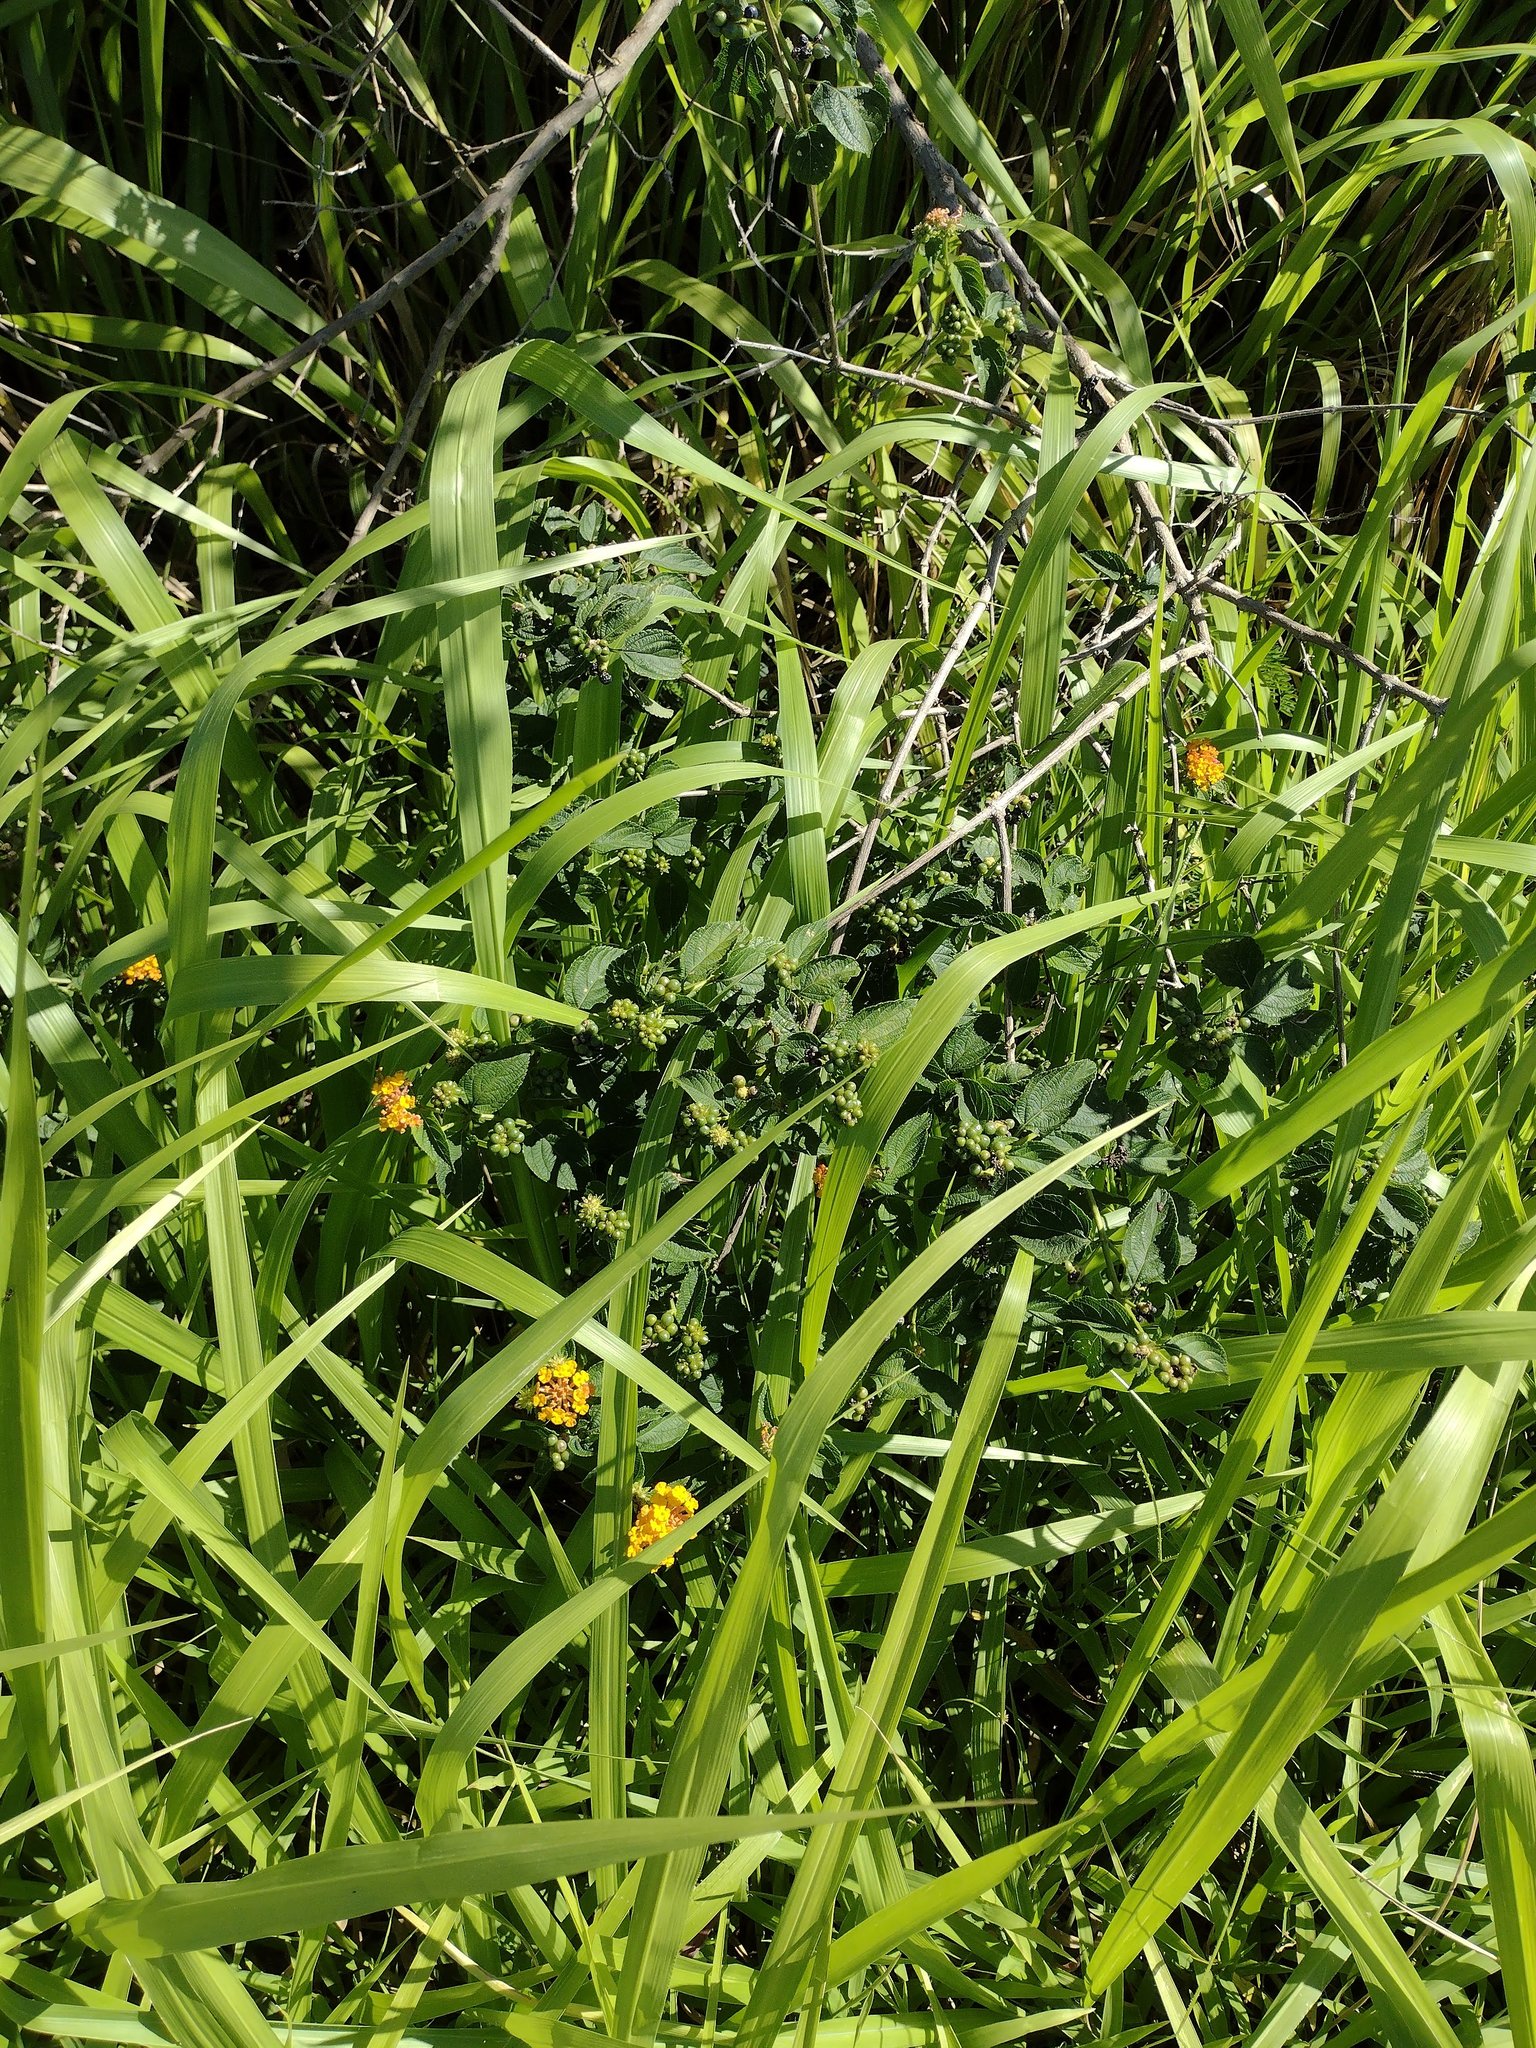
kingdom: Plantae
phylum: Tracheophyta
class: Magnoliopsida
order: Lamiales
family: Verbenaceae
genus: Lantana
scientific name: Lantana camara
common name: Lantana
